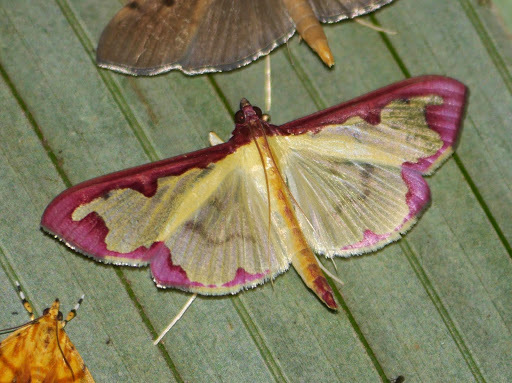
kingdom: Animalia
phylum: Arthropoda
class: Insecta
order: Lepidoptera
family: Crambidae
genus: Cadarena
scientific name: Cadarena pudoraria
